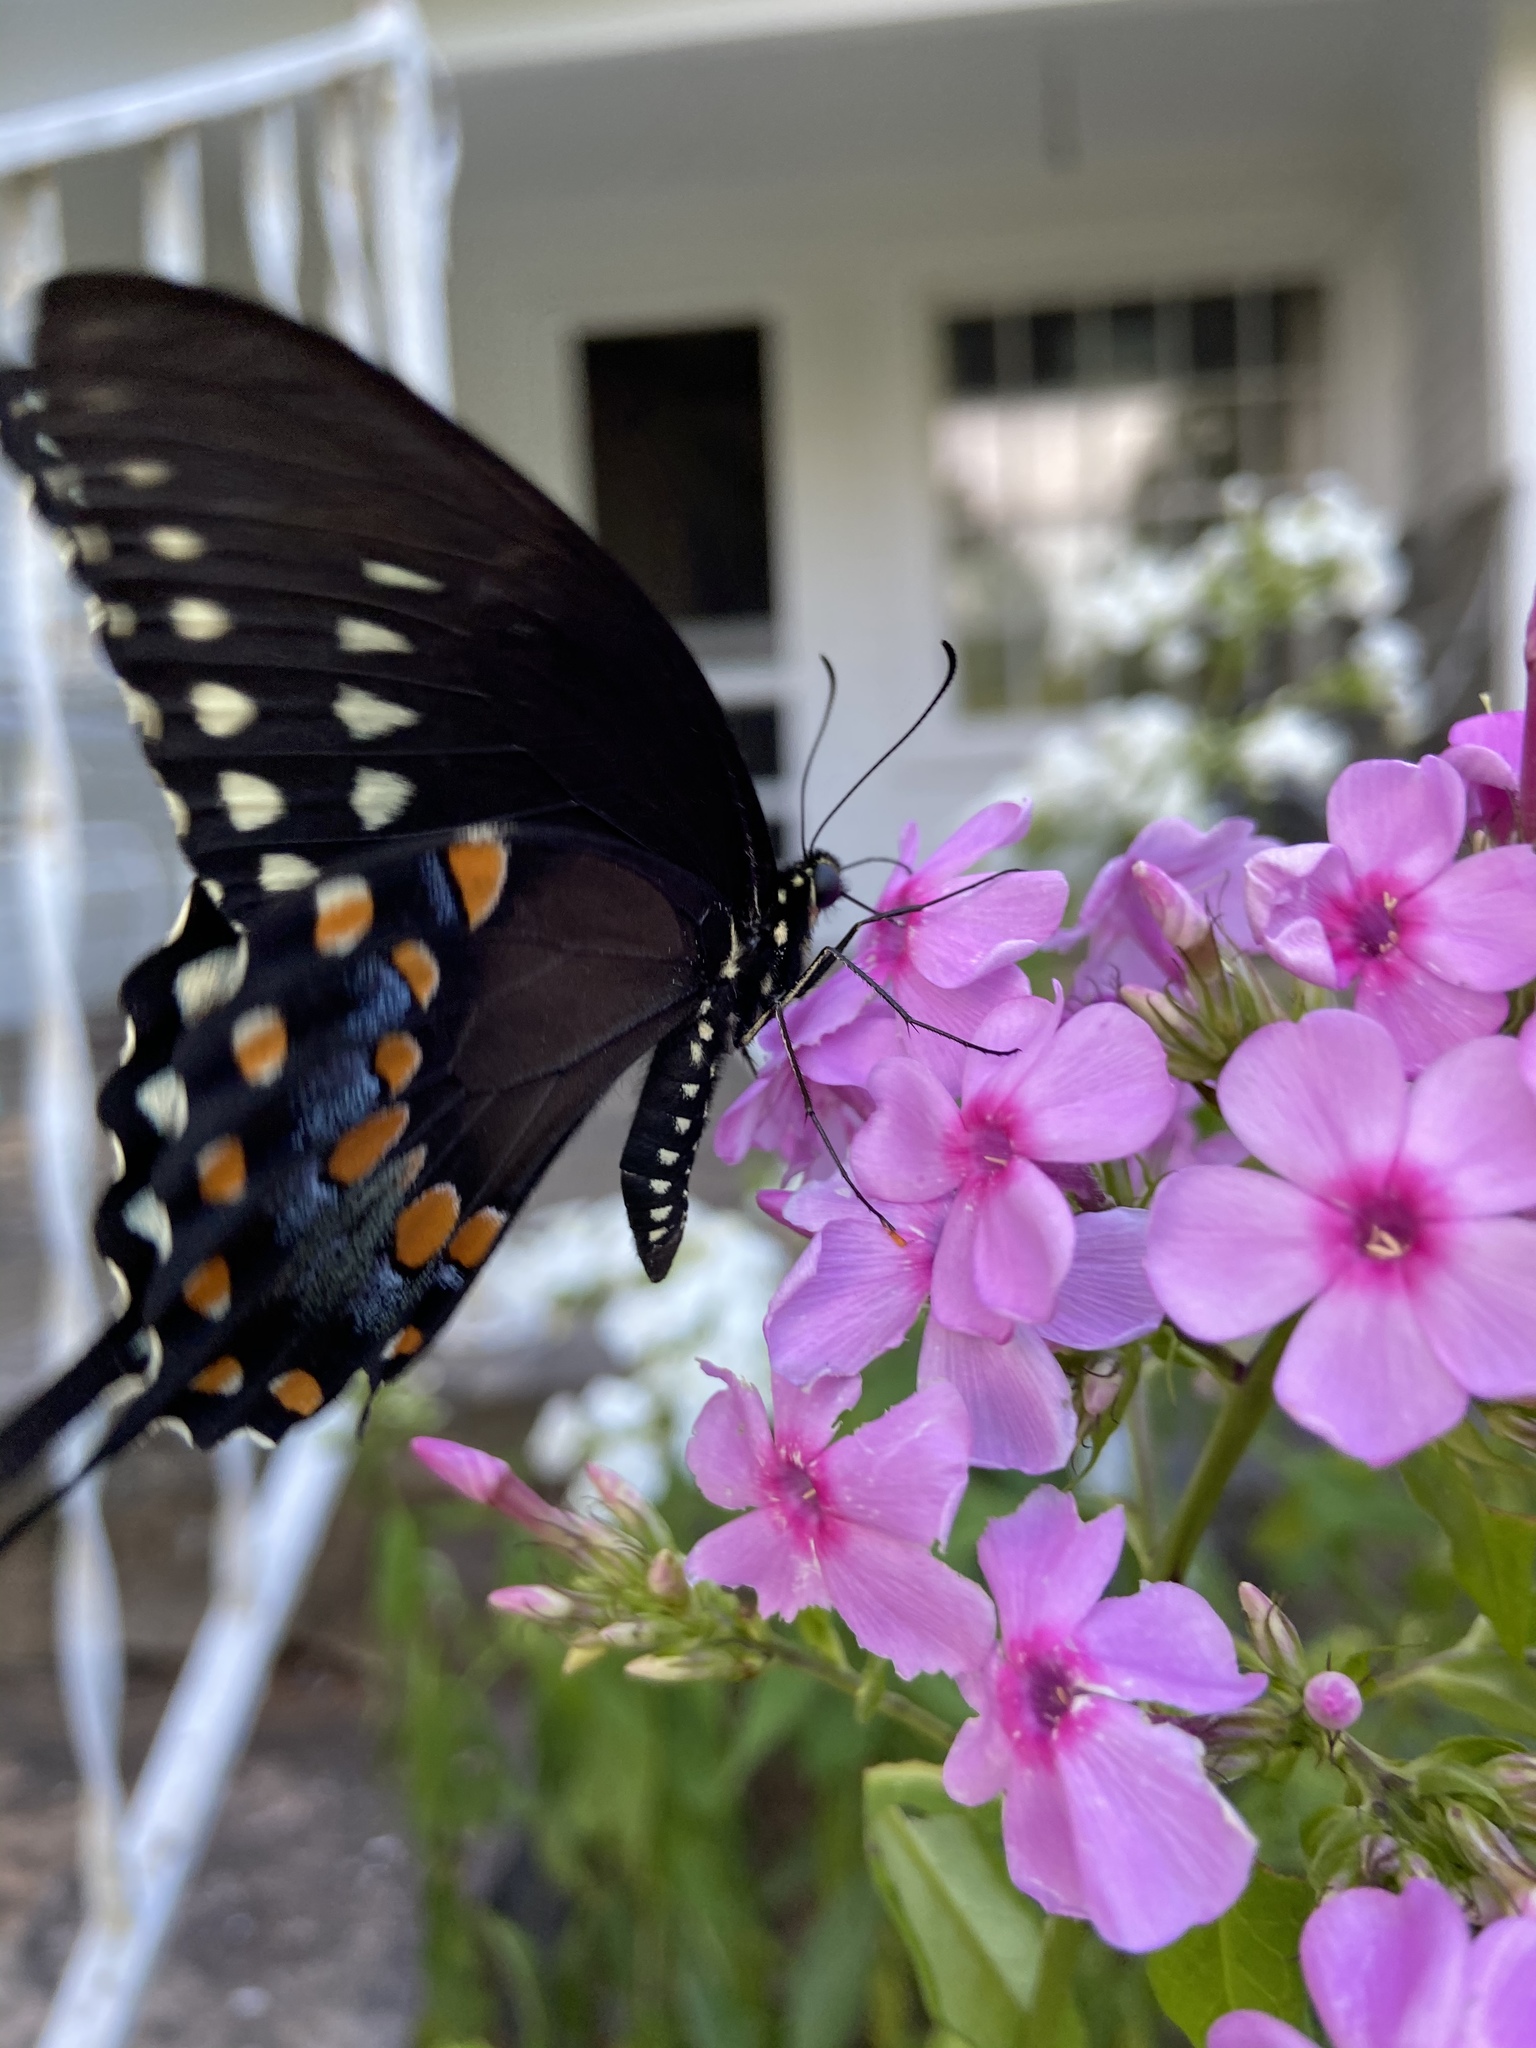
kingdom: Animalia
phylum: Arthropoda
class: Insecta
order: Lepidoptera
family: Papilionidae
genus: Papilio
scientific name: Papilio troilus
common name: Spicebush swallowtail
